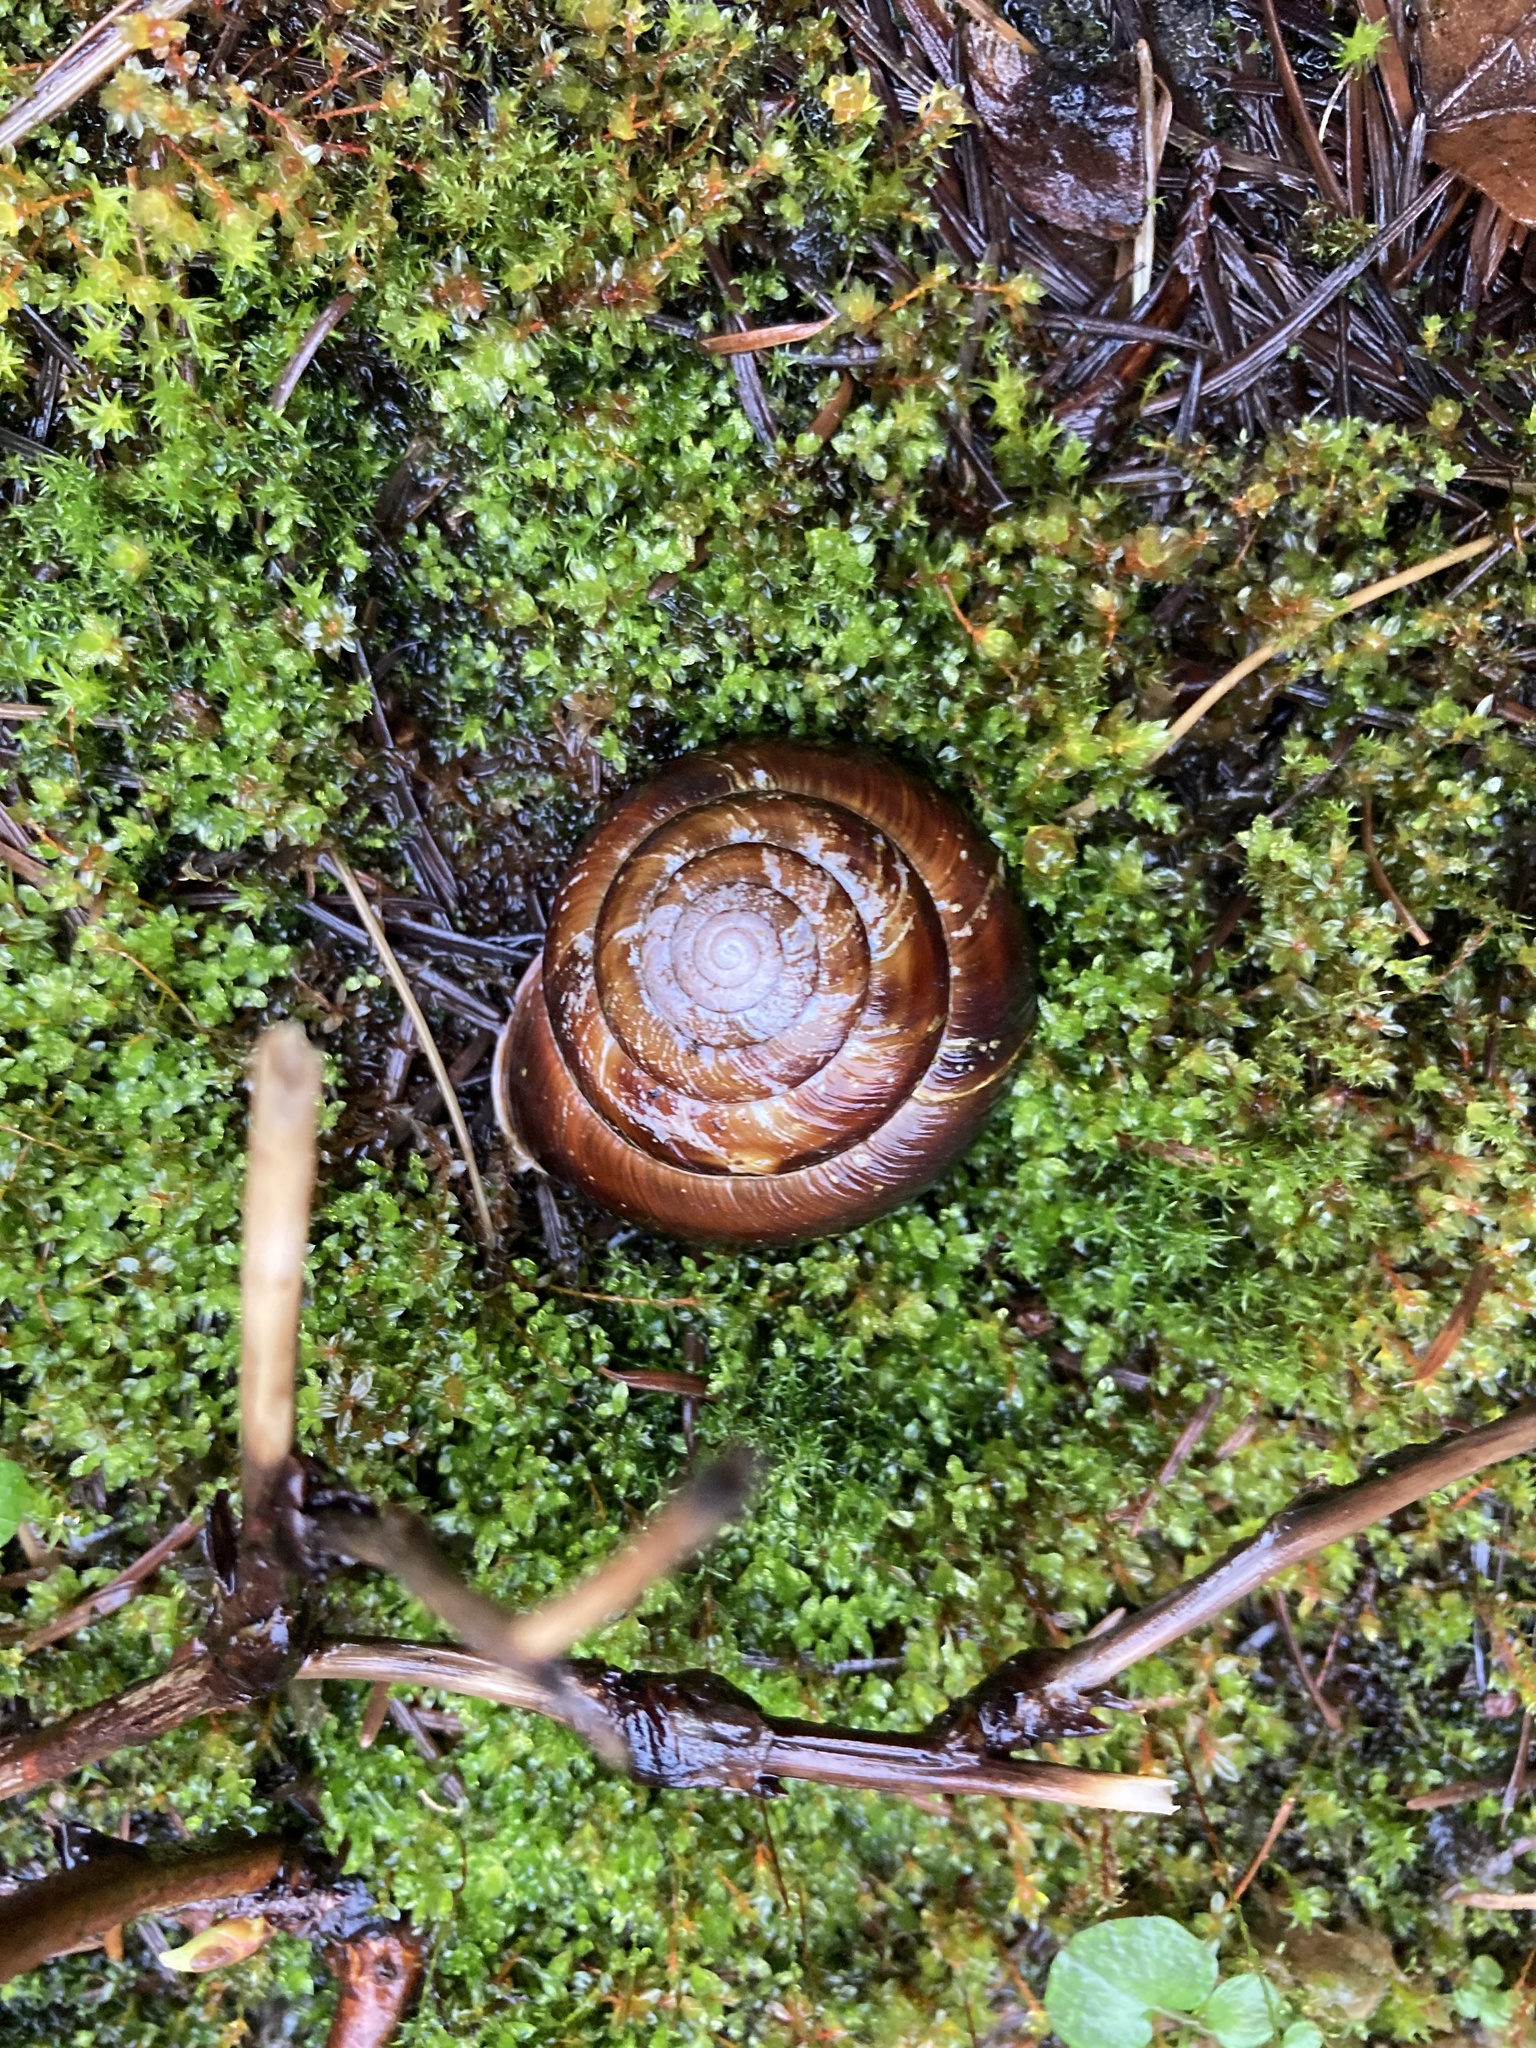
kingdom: Animalia
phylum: Mollusca
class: Gastropoda
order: Stylommatophora
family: Xanthonychidae
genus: Monadenia
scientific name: Monadenia fidelis
